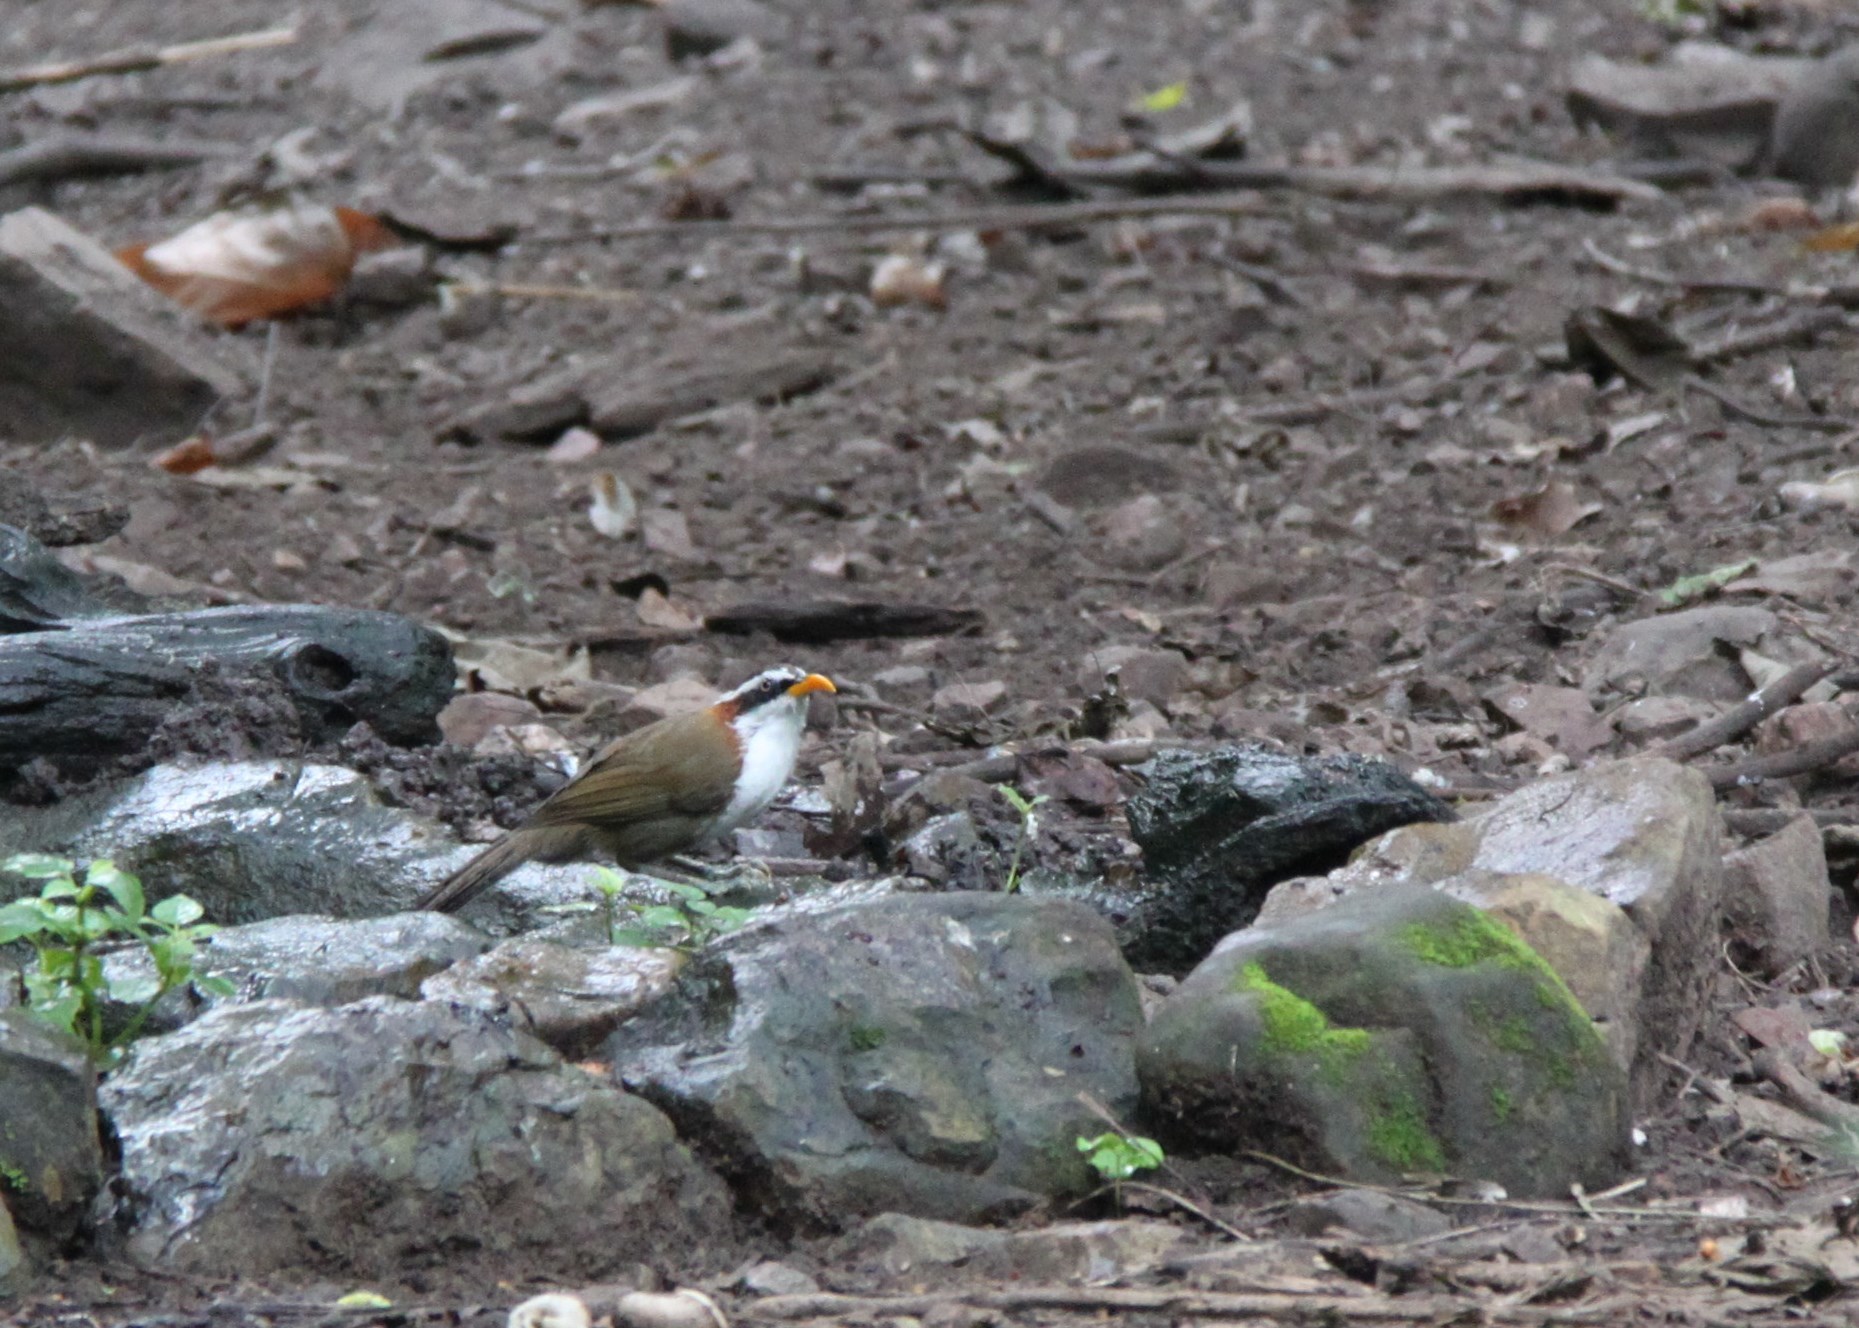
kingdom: Animalia
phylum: Chordata
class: Aves
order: Passeriformes
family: Timaliidae
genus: Pomatorhinus
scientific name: Pomatorhinus schisticeps
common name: White-browed scimitar babbler
